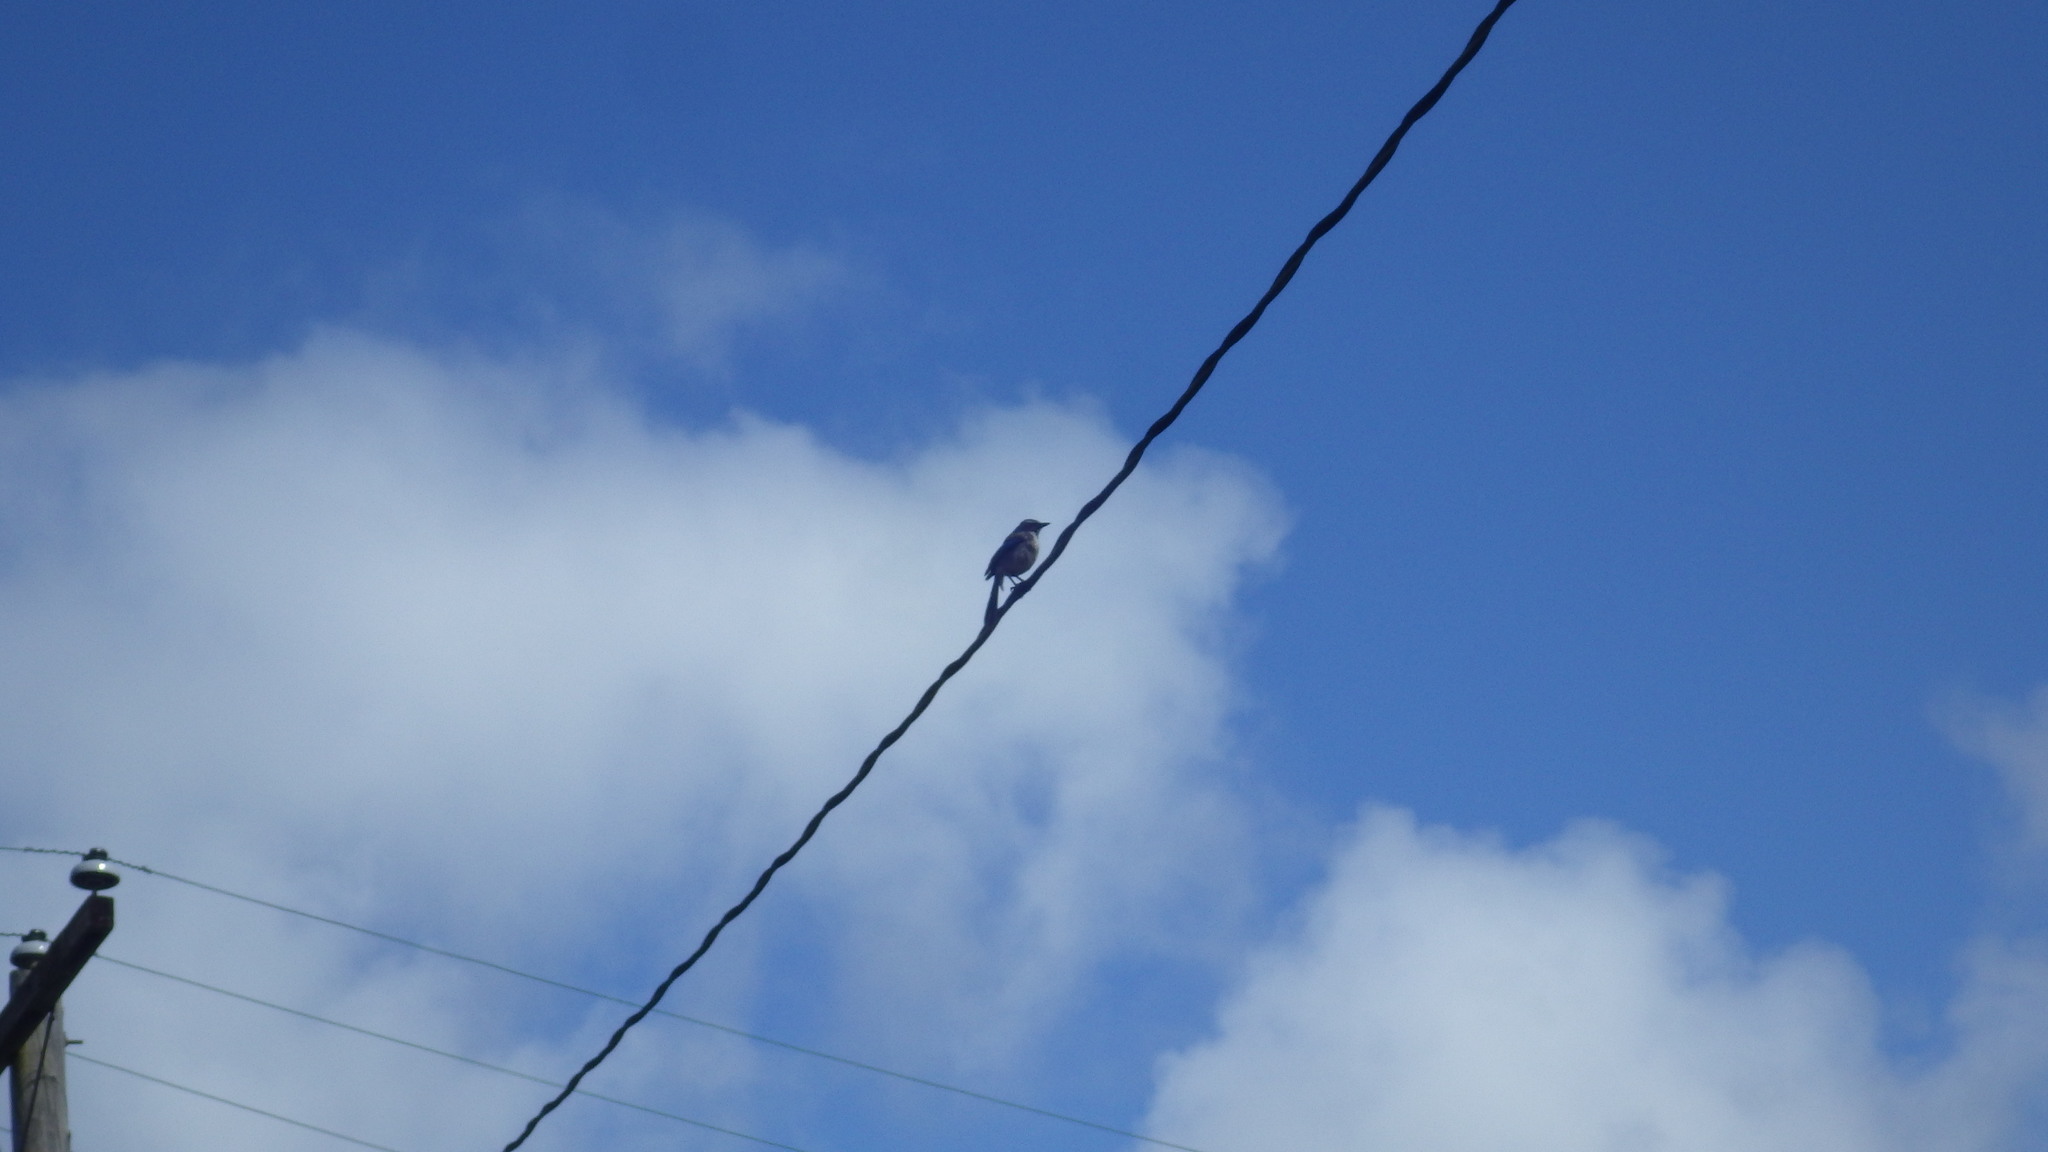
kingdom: Animalia
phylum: Chordata
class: Aves
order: Passeriformes
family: Corvidae
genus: Aphelocoma
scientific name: Aphelocoma californica
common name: California scrub-jay
